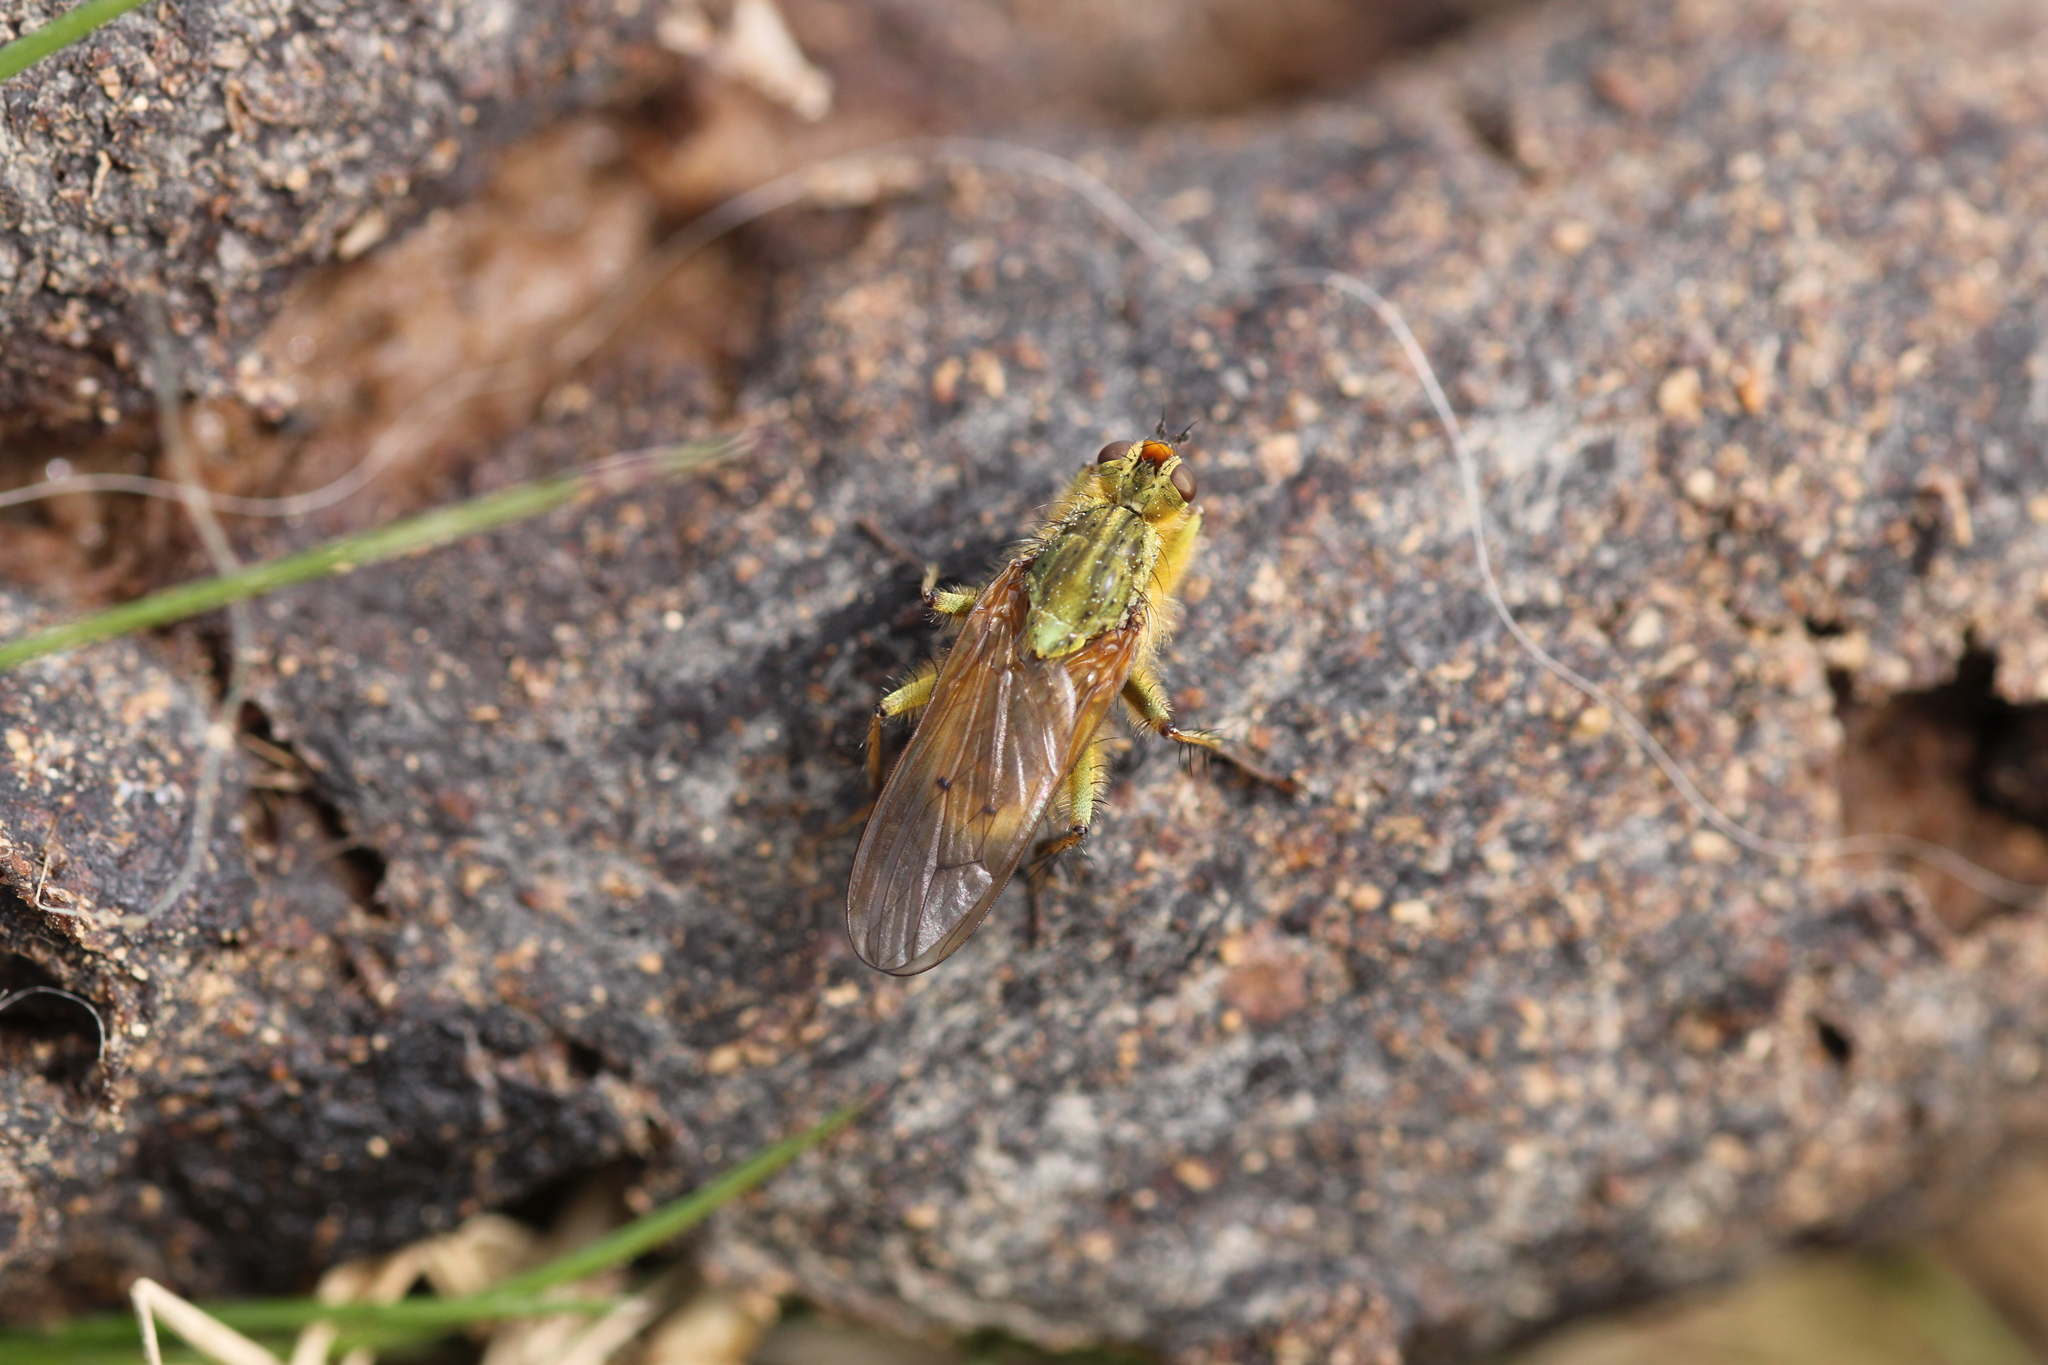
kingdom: Animalia
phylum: Arthropoda
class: Insecta
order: Diptera
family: Scathophagidae
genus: Scathophaga
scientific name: Scathophaga stercoraria
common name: Yellow dung fly
